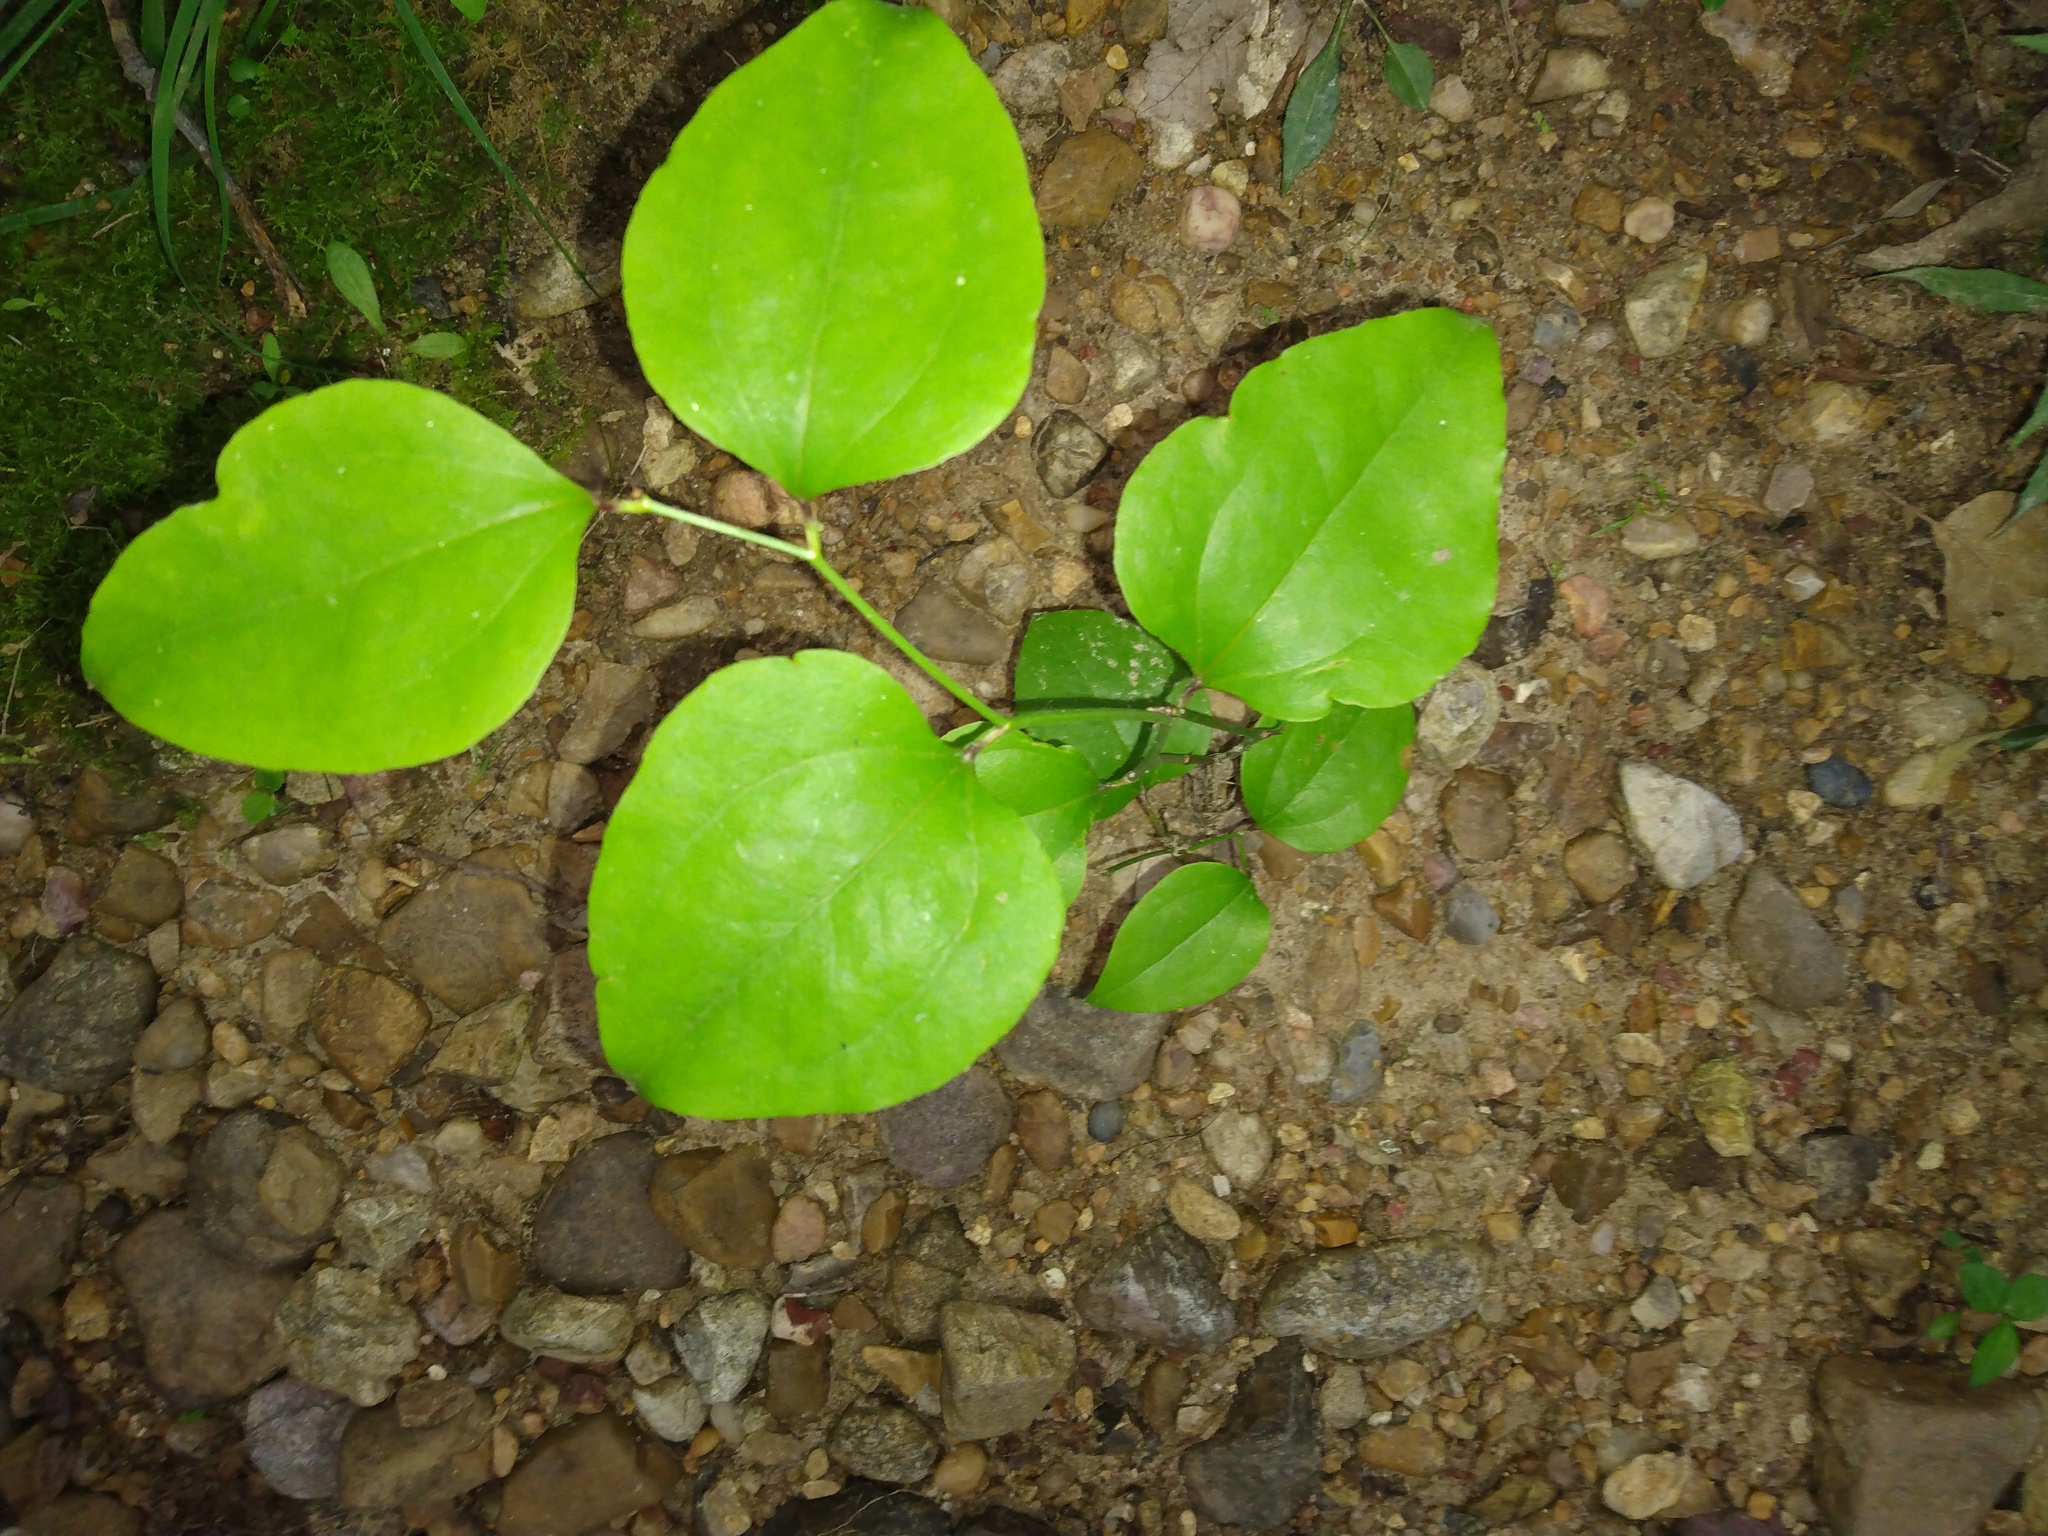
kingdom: Plantae
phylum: Tracheophyta
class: Liliopsida
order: Liliales
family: Smilacaceae
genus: Smilax
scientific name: Smilax rotundifolia
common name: Bullbriar
